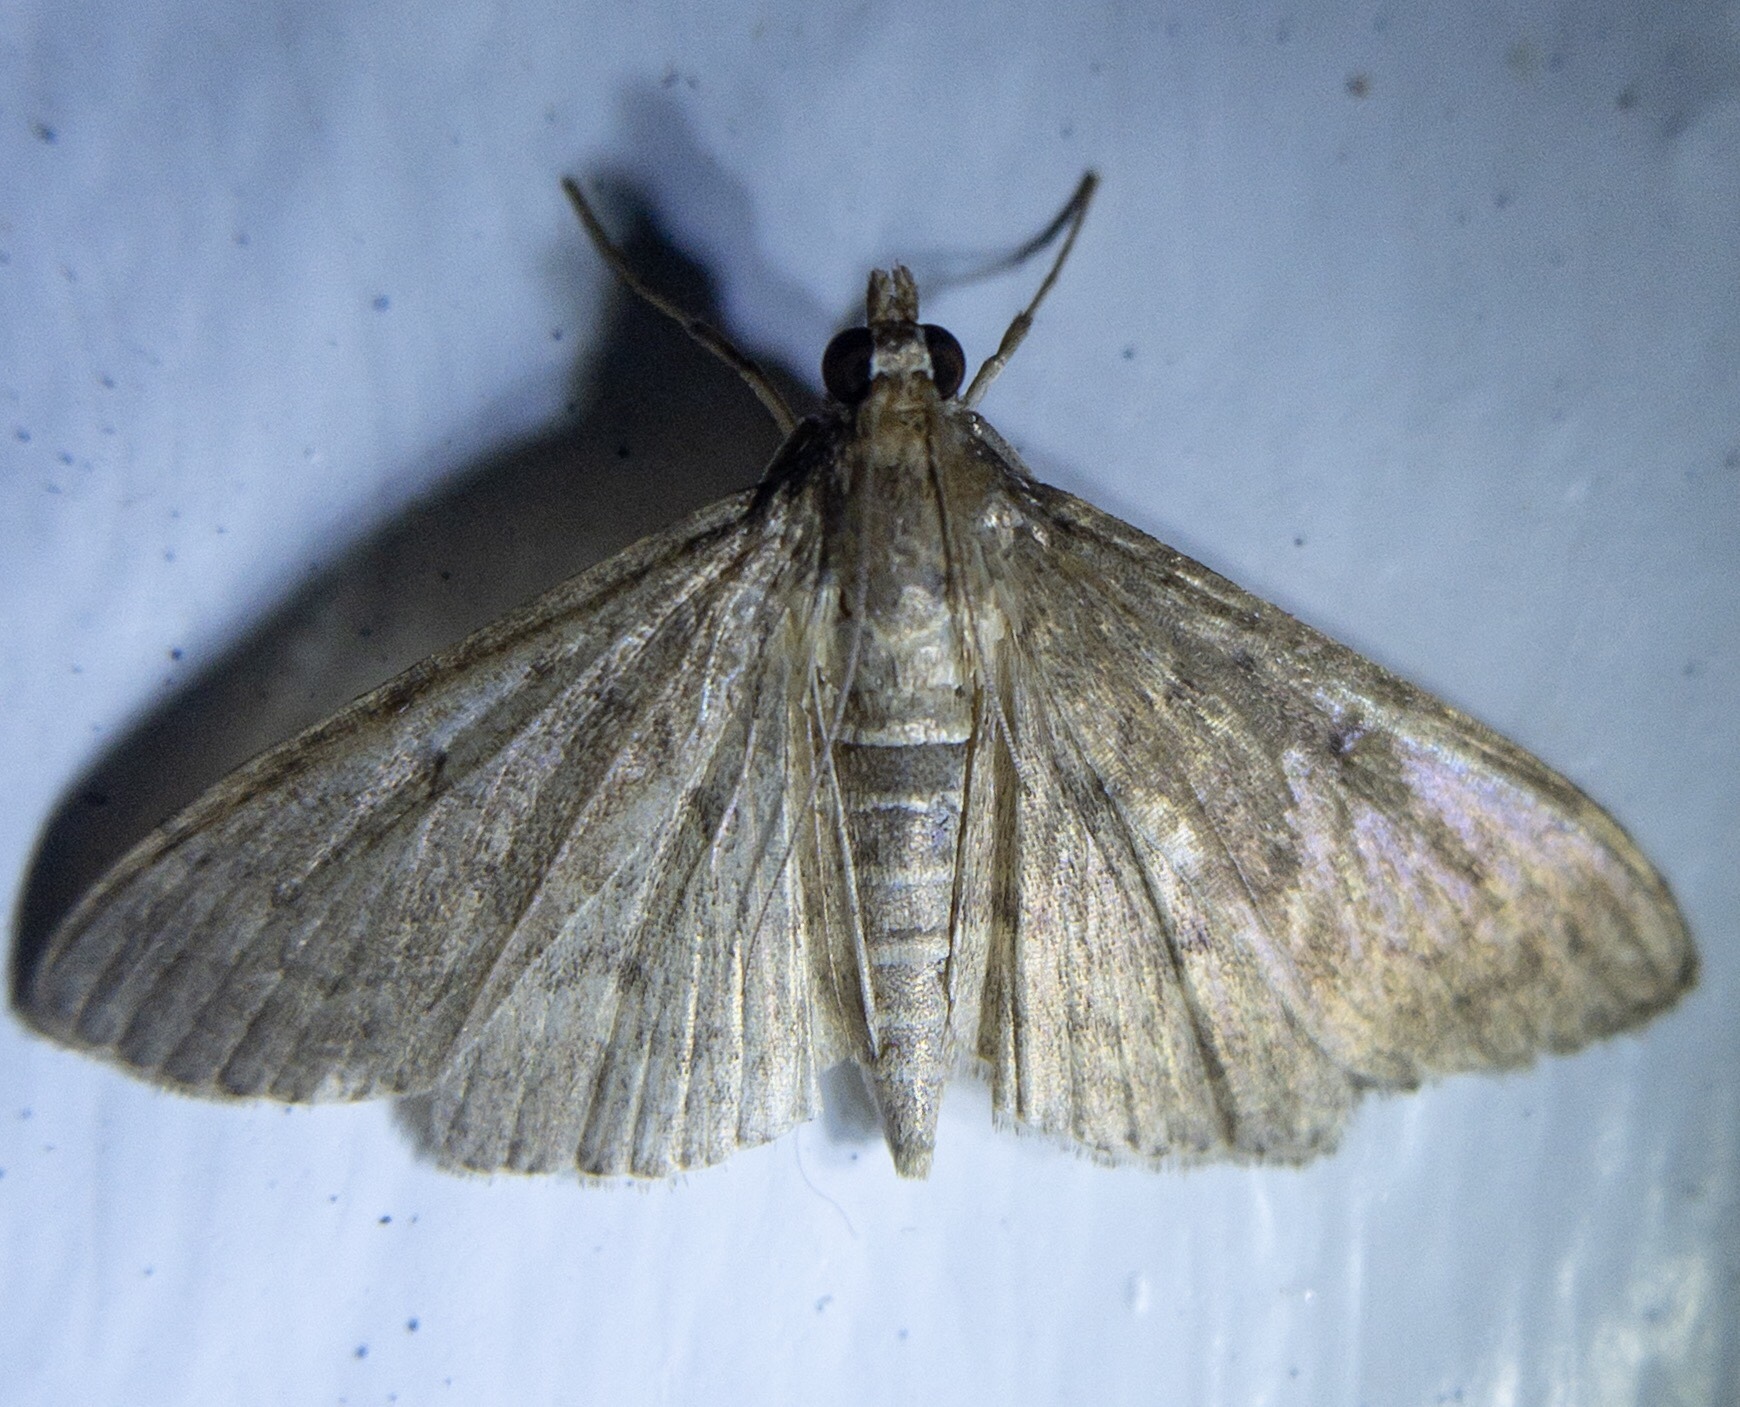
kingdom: Animalia
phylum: Arthropoda
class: Insecta
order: Lepidoptera
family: Crambidae
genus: Herpetogramma
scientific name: Herpetogramma licarsisalis
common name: Grass webworm
